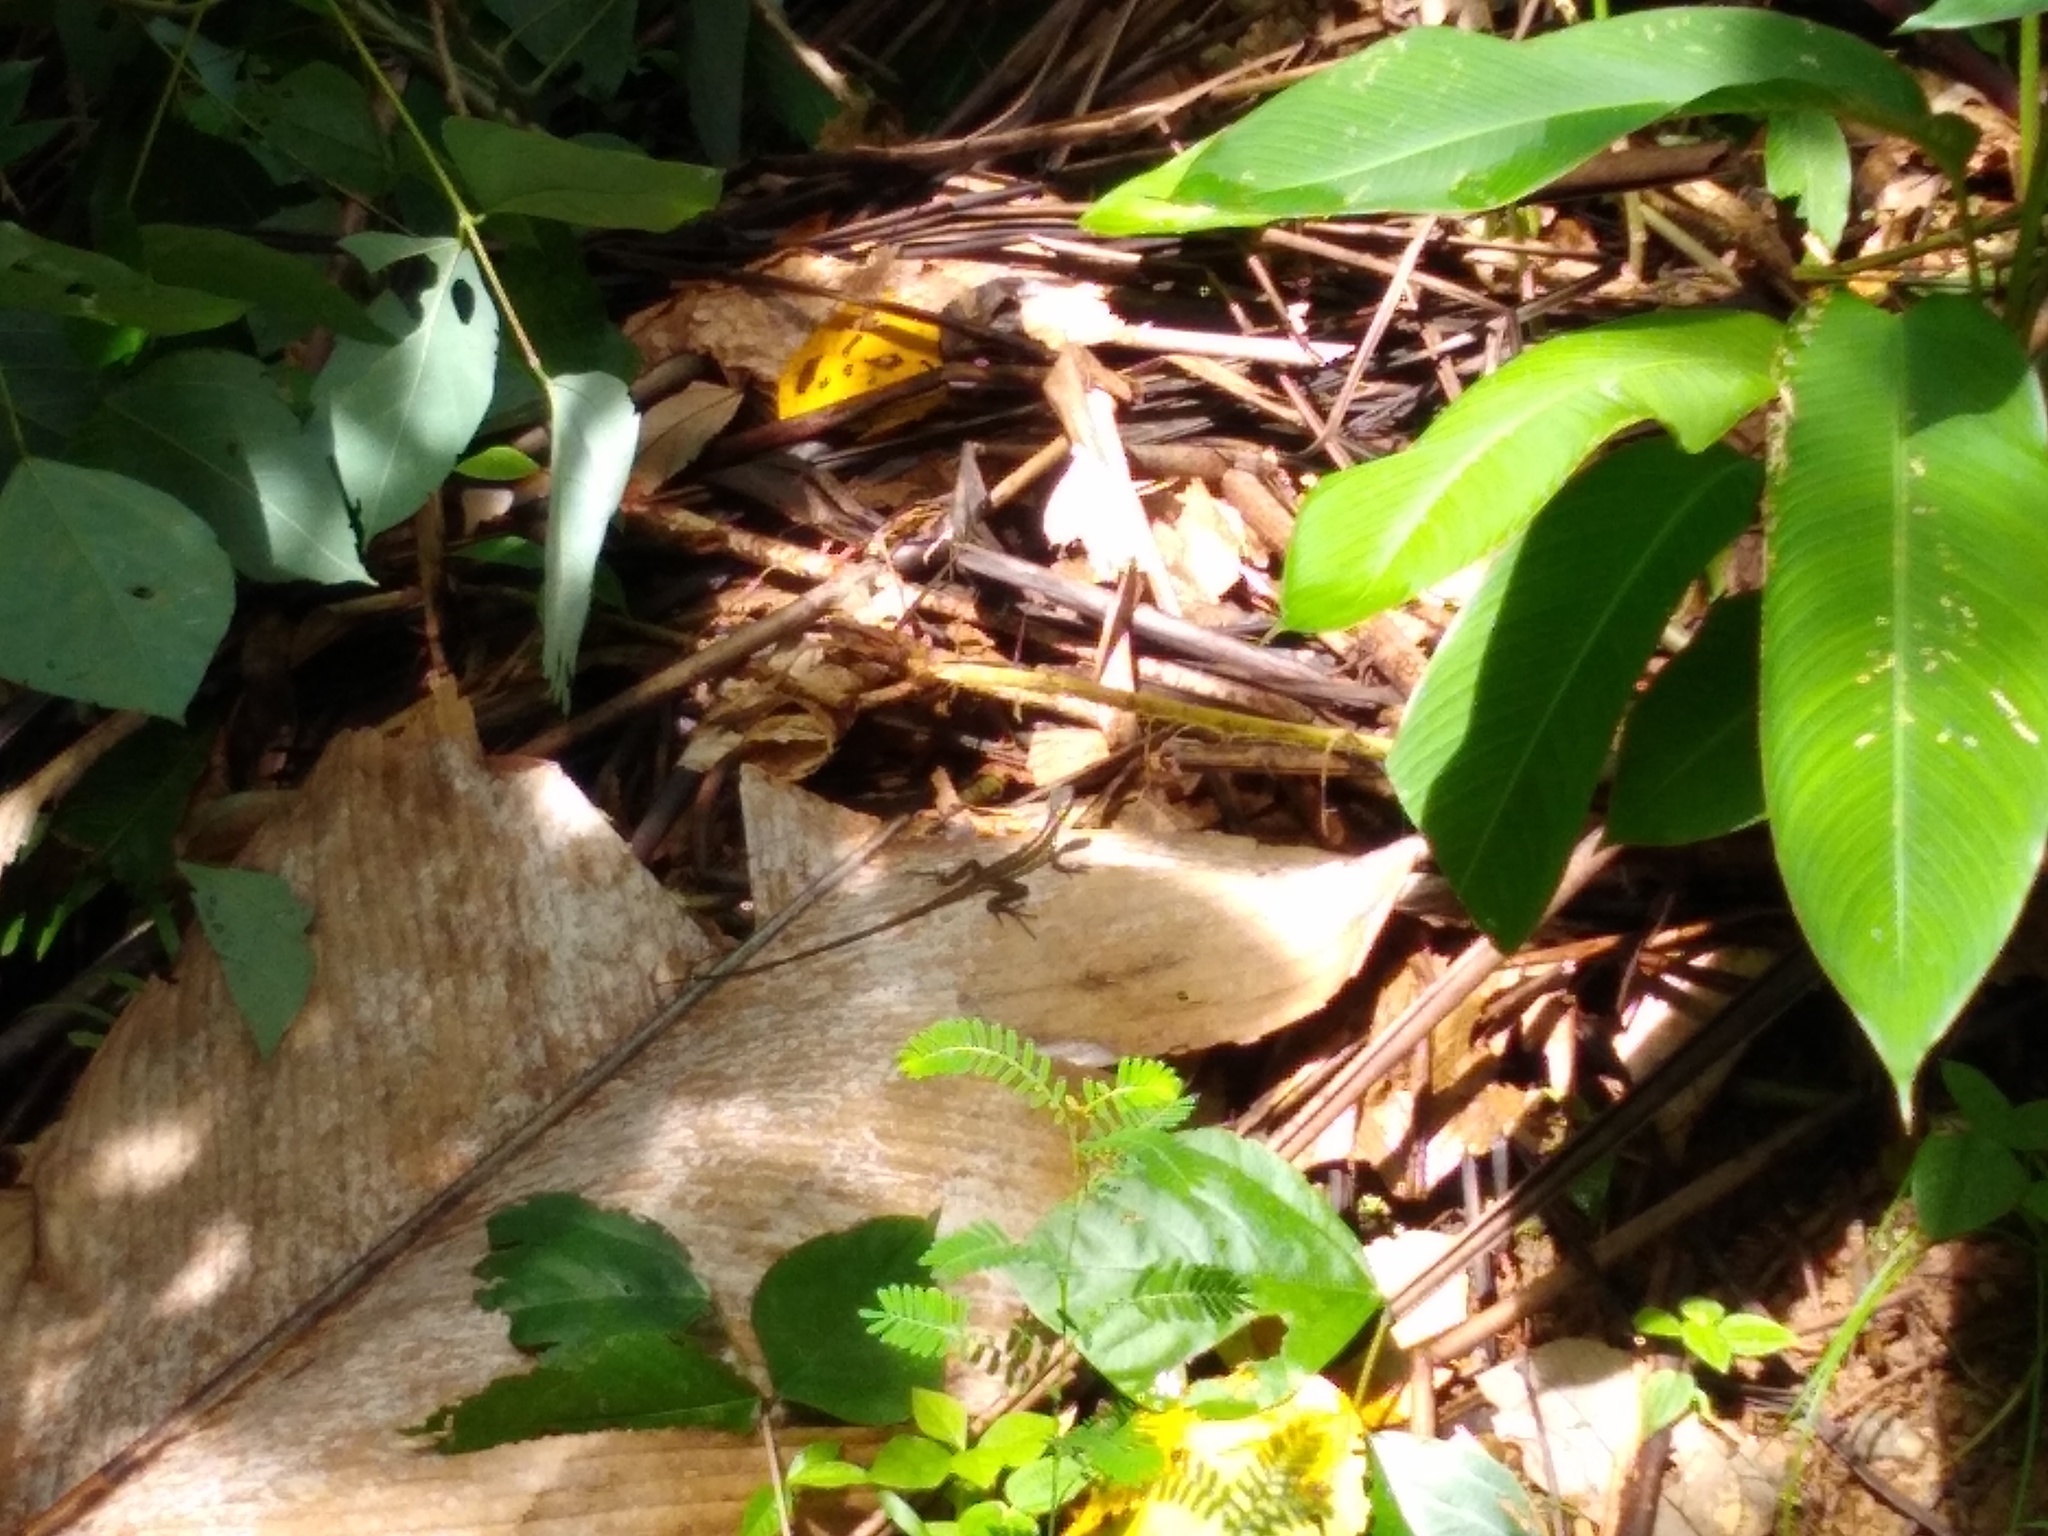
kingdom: Animalia
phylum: Chordata
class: Squamata
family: Corytophanidae
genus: Basiliscus
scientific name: Basiliscus basiliscus
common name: Common basilisk
